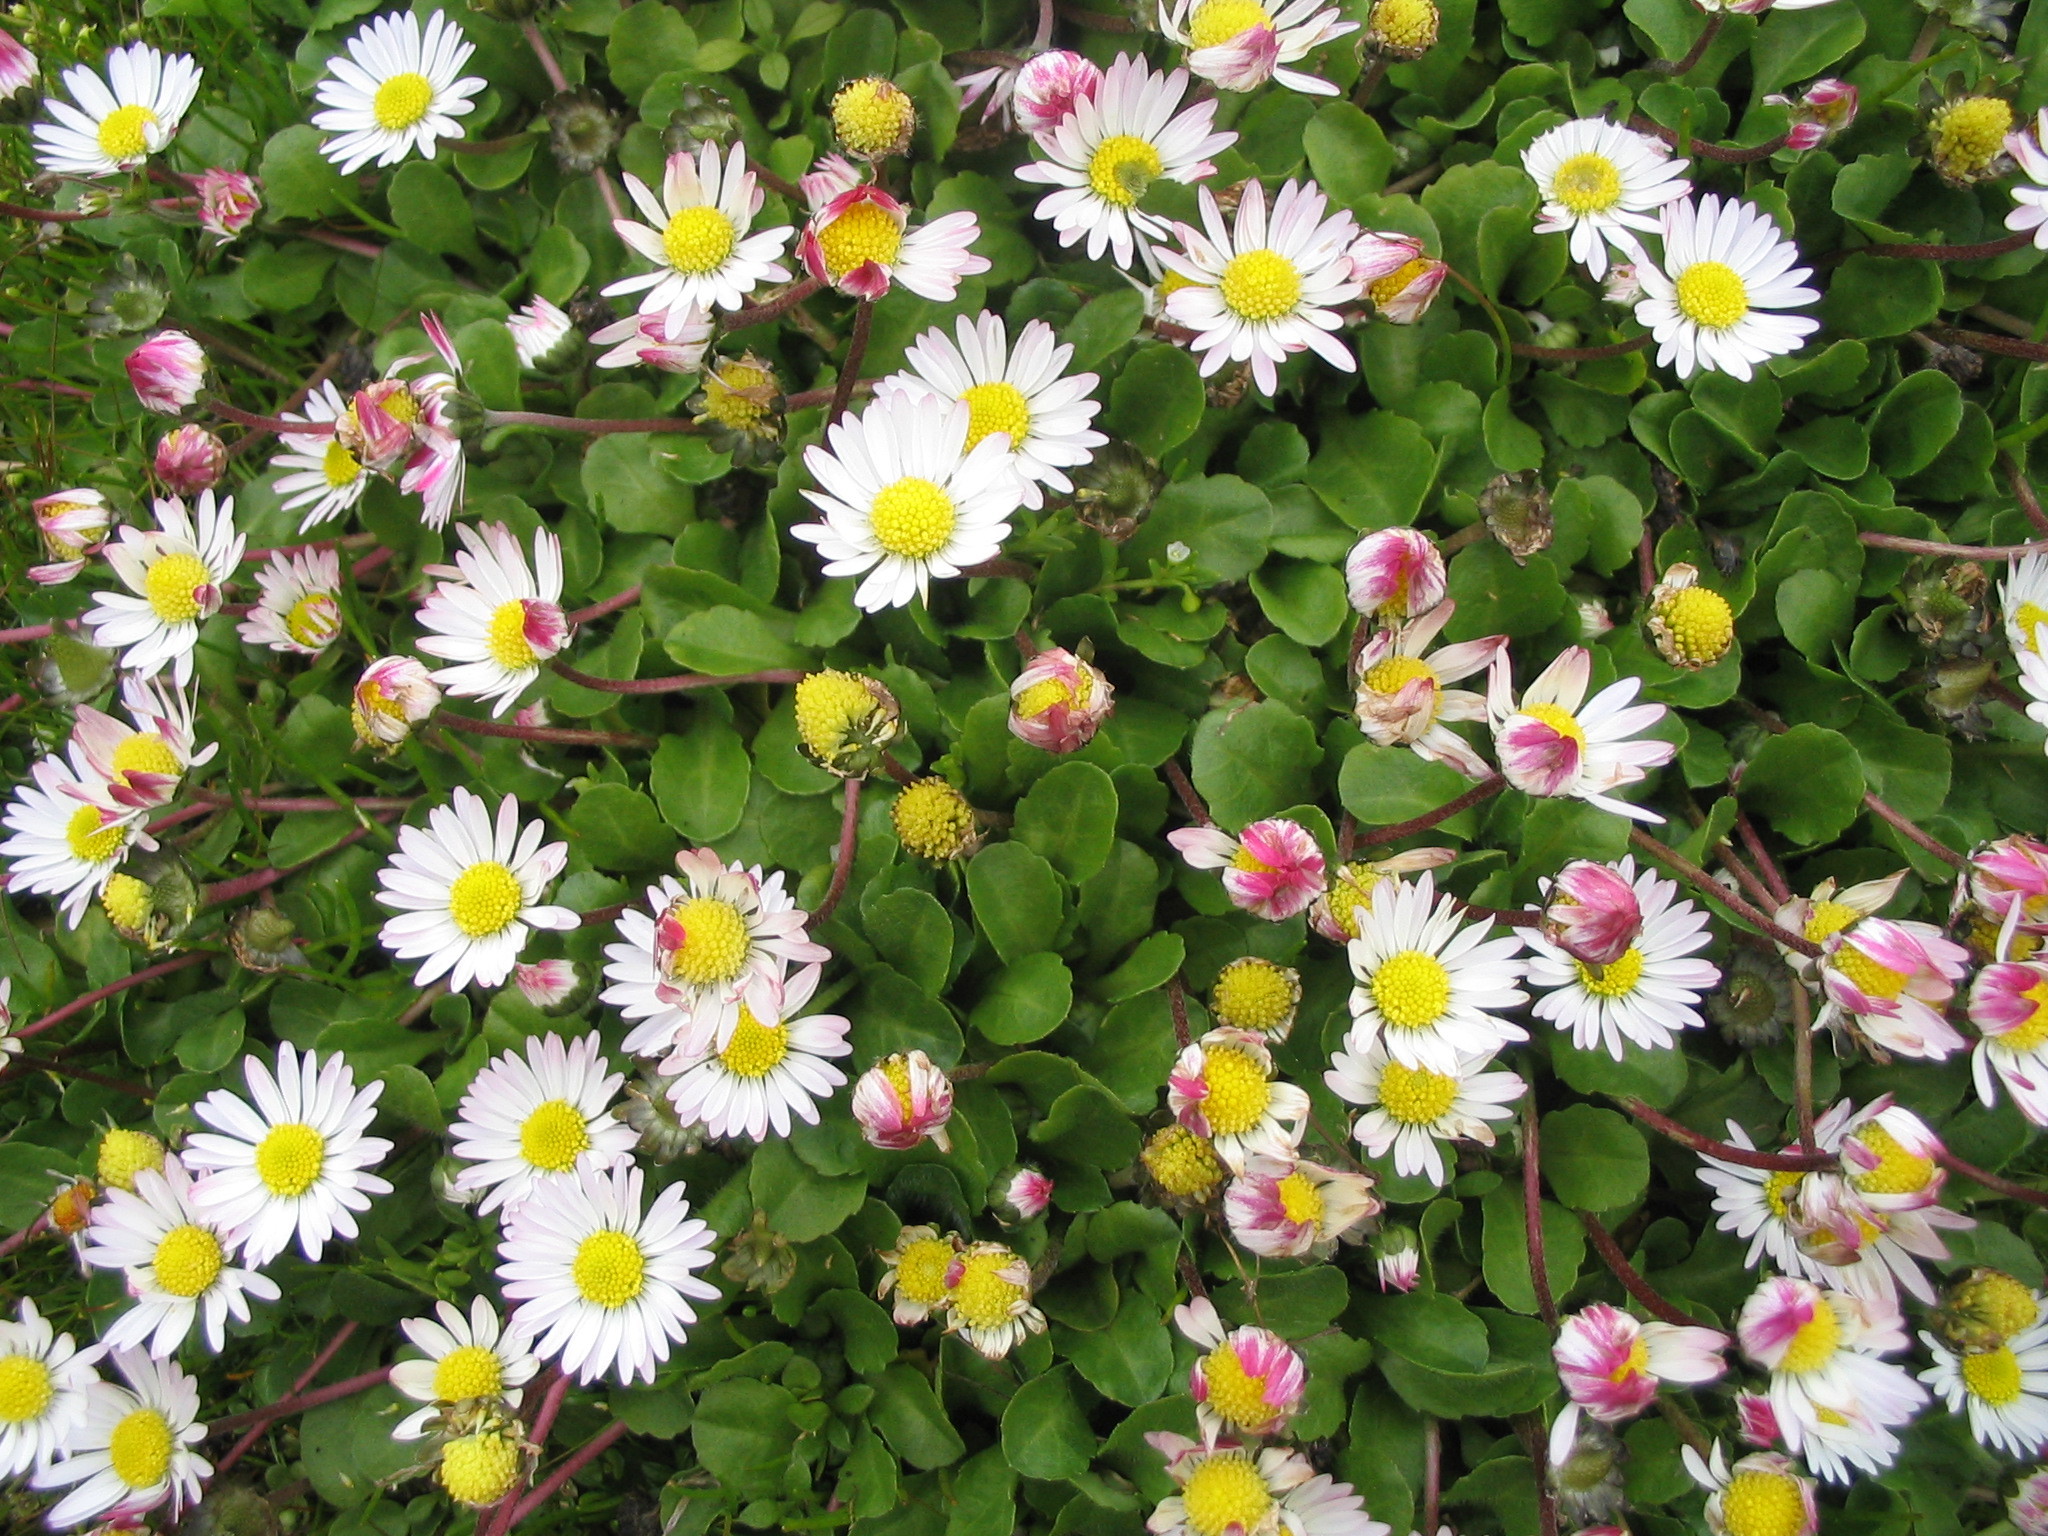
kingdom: Plantae
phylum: Tracheophyta
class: Magnoliopsida
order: Asterales
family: Asteraceae
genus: Bellis
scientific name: Bellis perennis
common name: Lawndaisy
